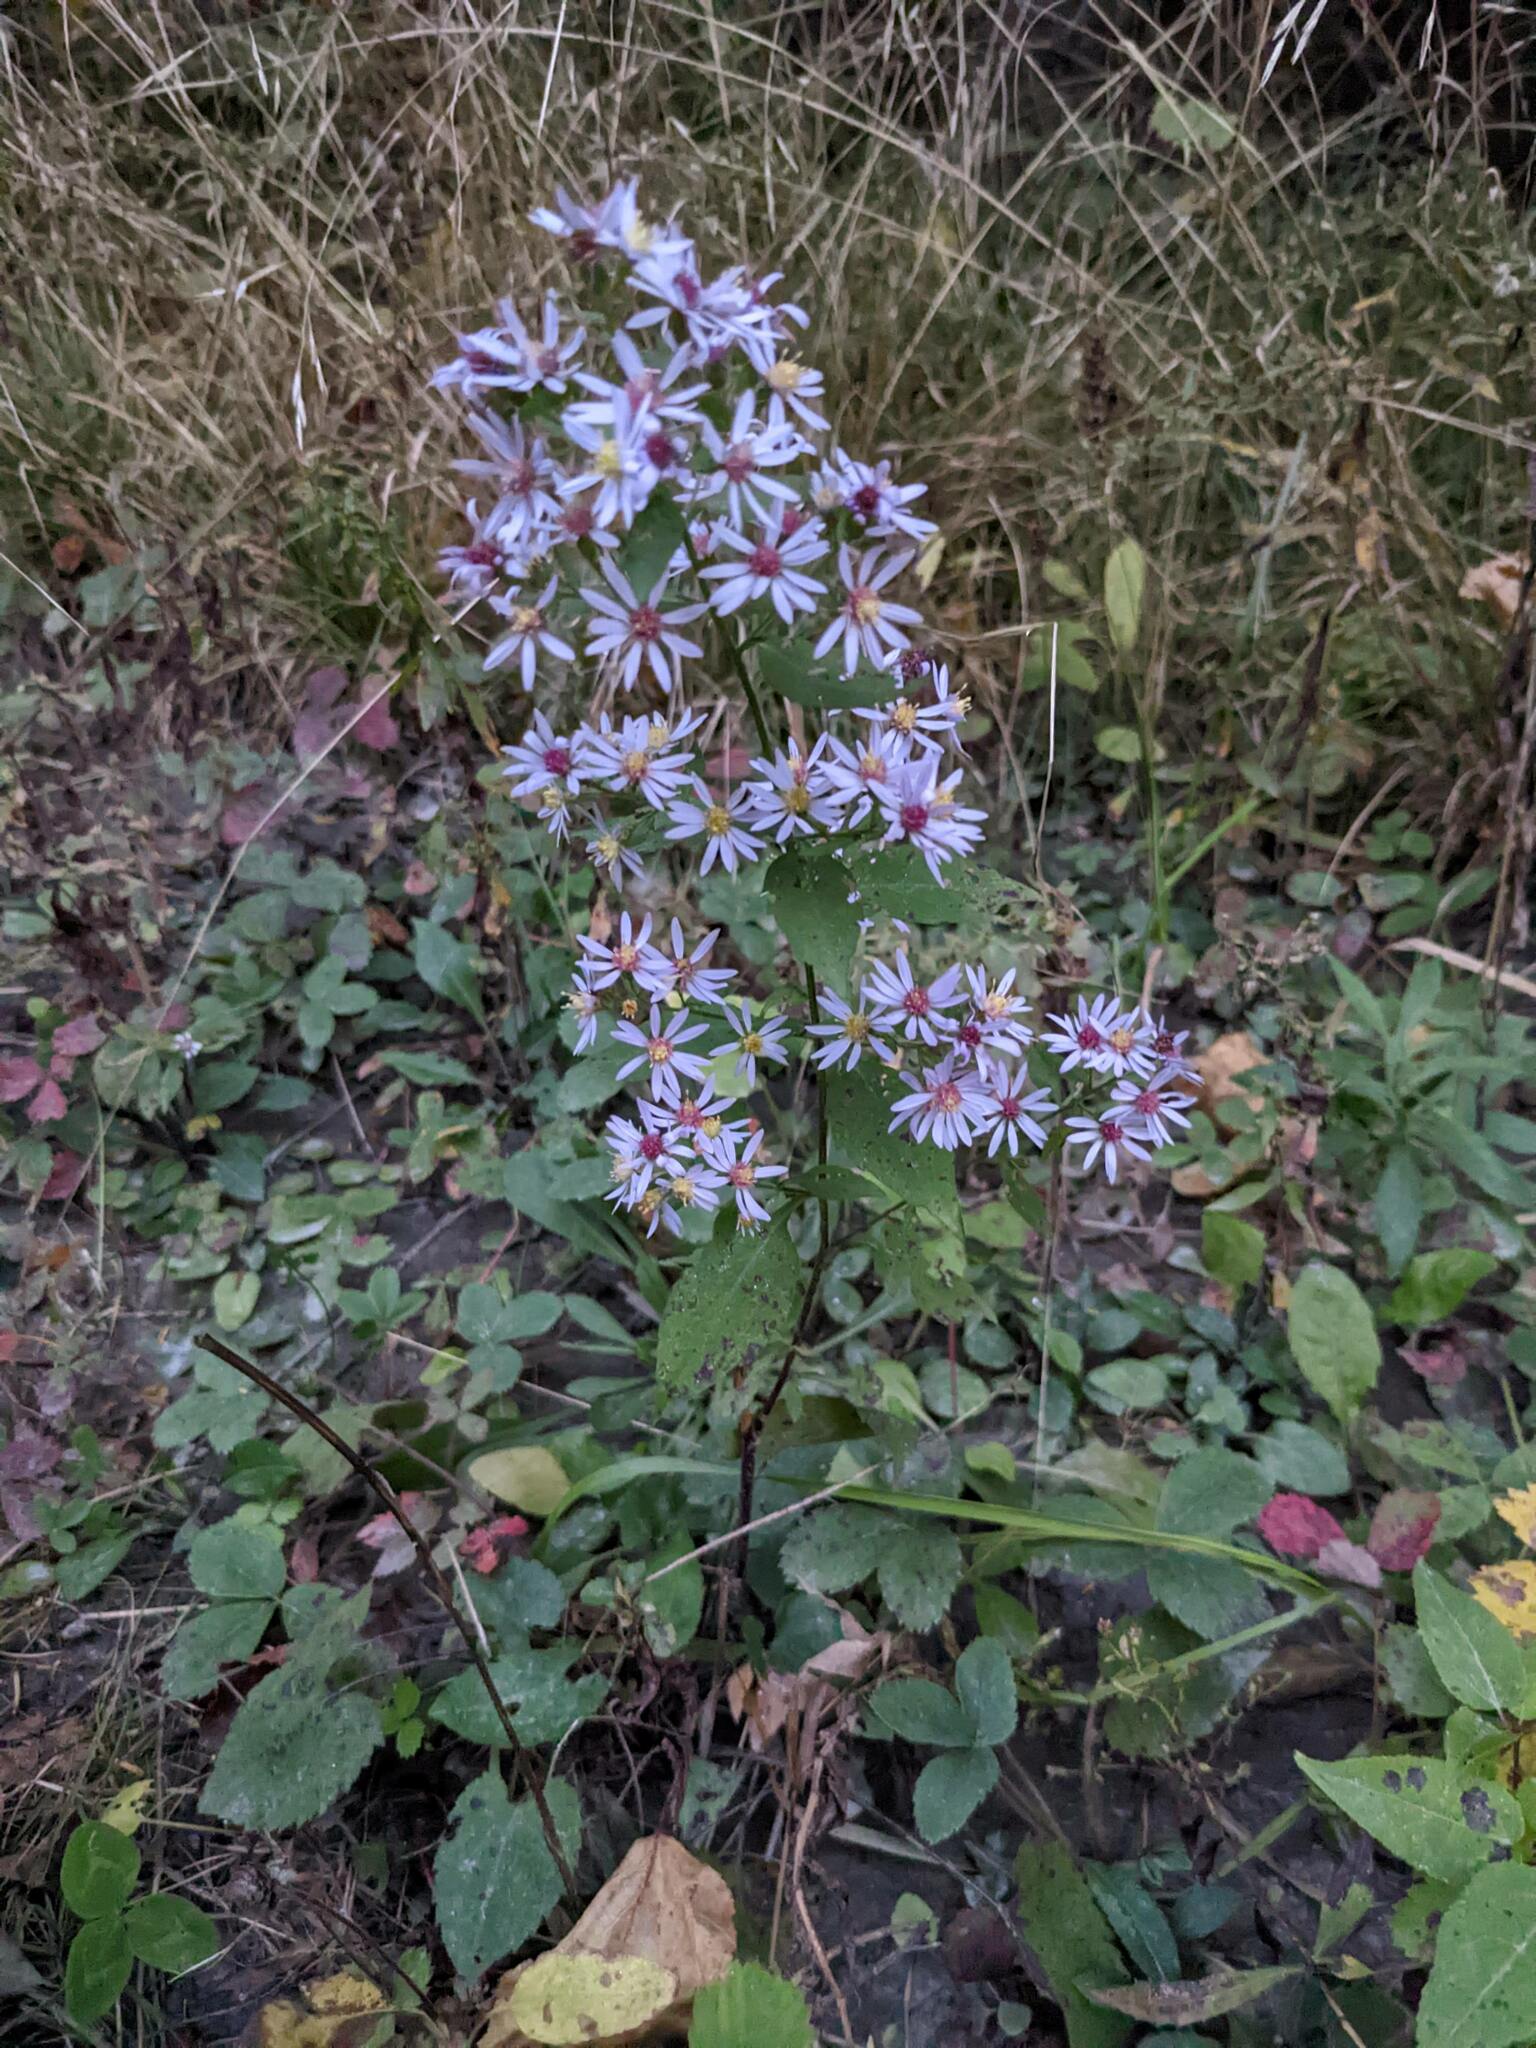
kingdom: Plantae
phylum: Tracheophyta
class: Magnoliopsida
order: Asterales
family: Asteraceae
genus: Symphyotrichum
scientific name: Symphyotrichum cordifolium
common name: Beeweed
